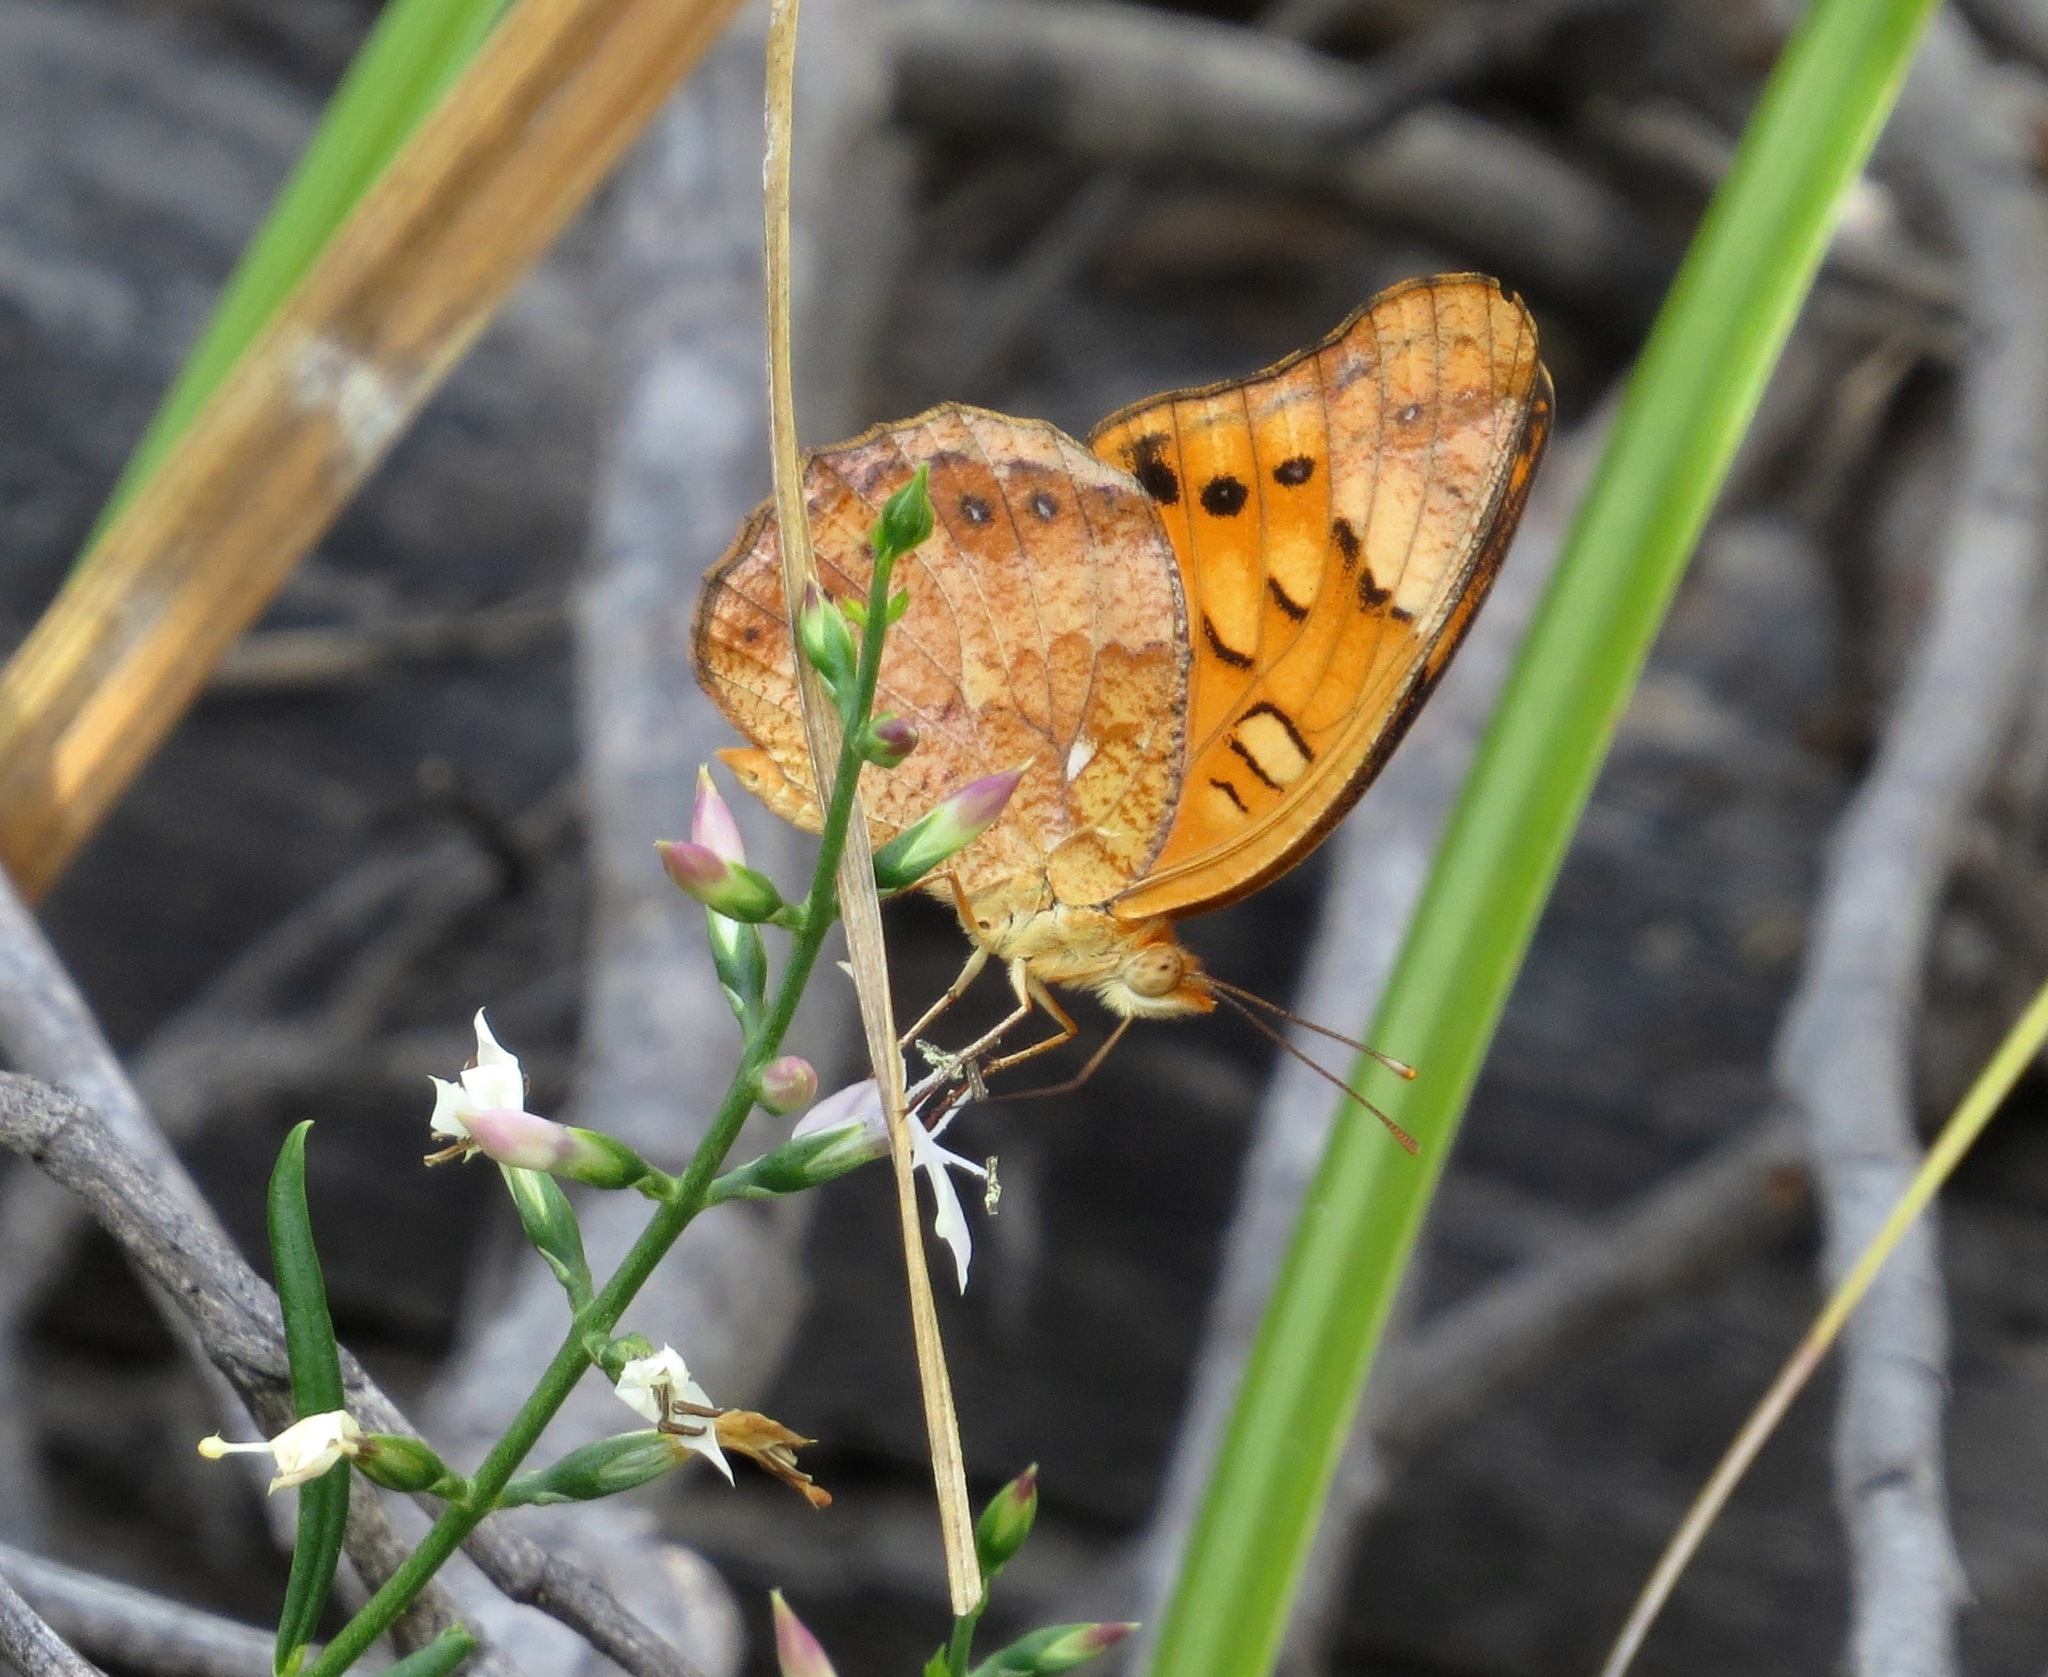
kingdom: Animalia
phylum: Arthropoda
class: Insecta
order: Lepidoptera
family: Nymphalidae
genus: Euptoieta
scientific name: Euptoieta hegesia
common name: Mexican fritillary
